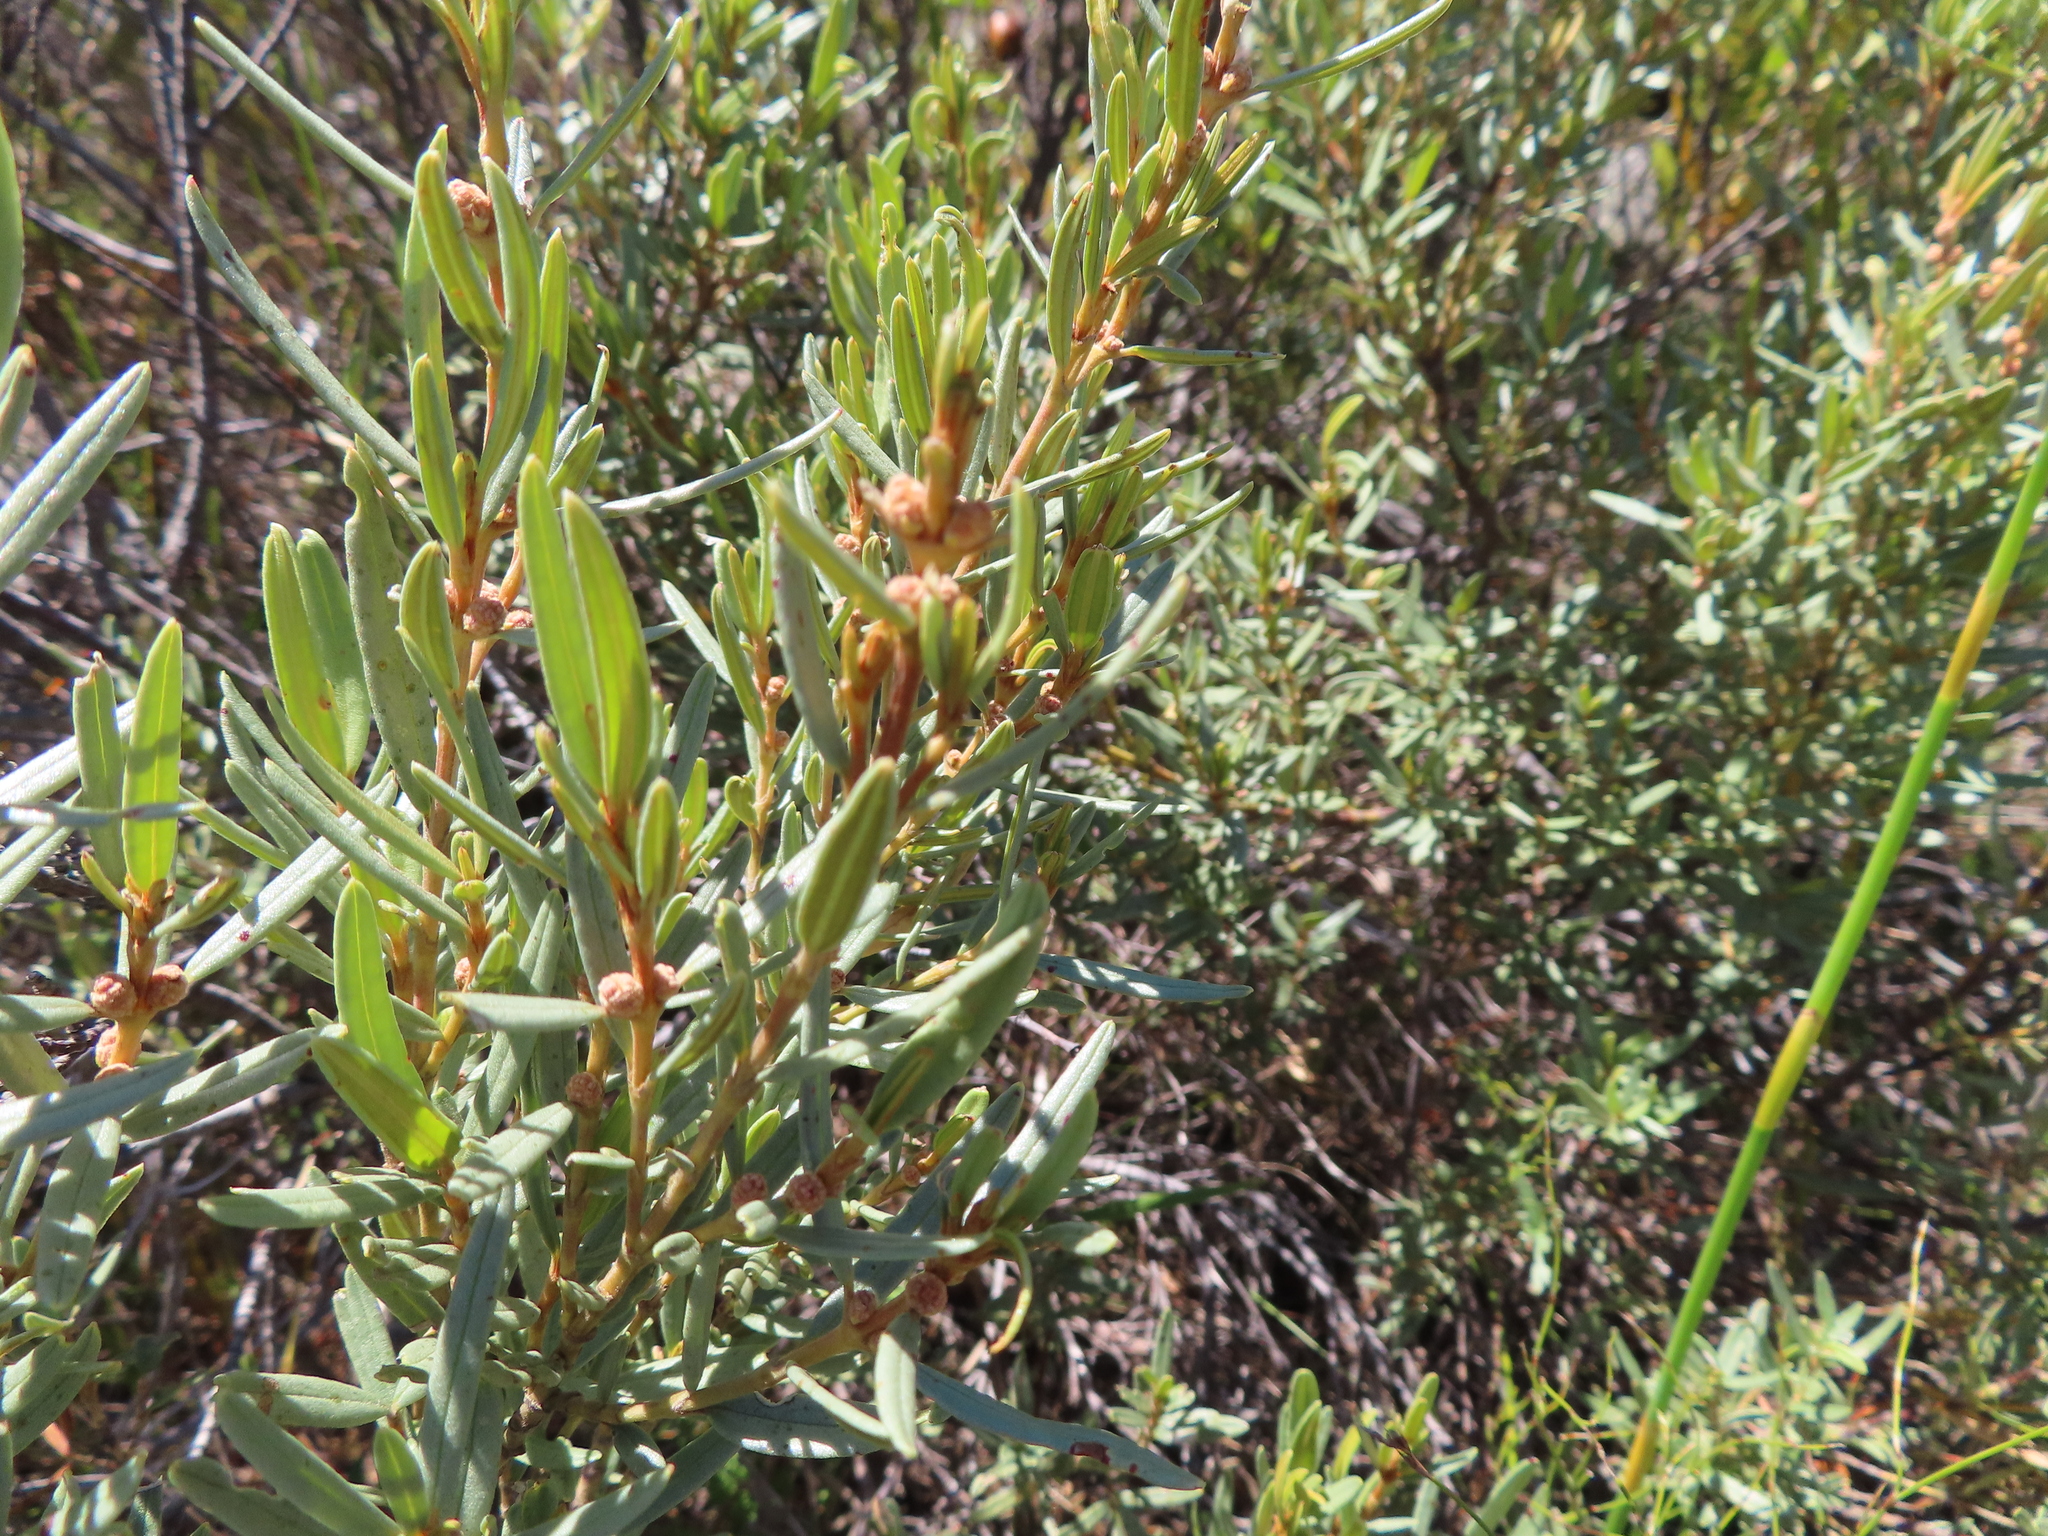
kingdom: Plantae
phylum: Tracheophyta
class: Magnoliopsida
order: Cornales
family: Grubbiaceae
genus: Grubbia
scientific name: Grubbia tomentosa
